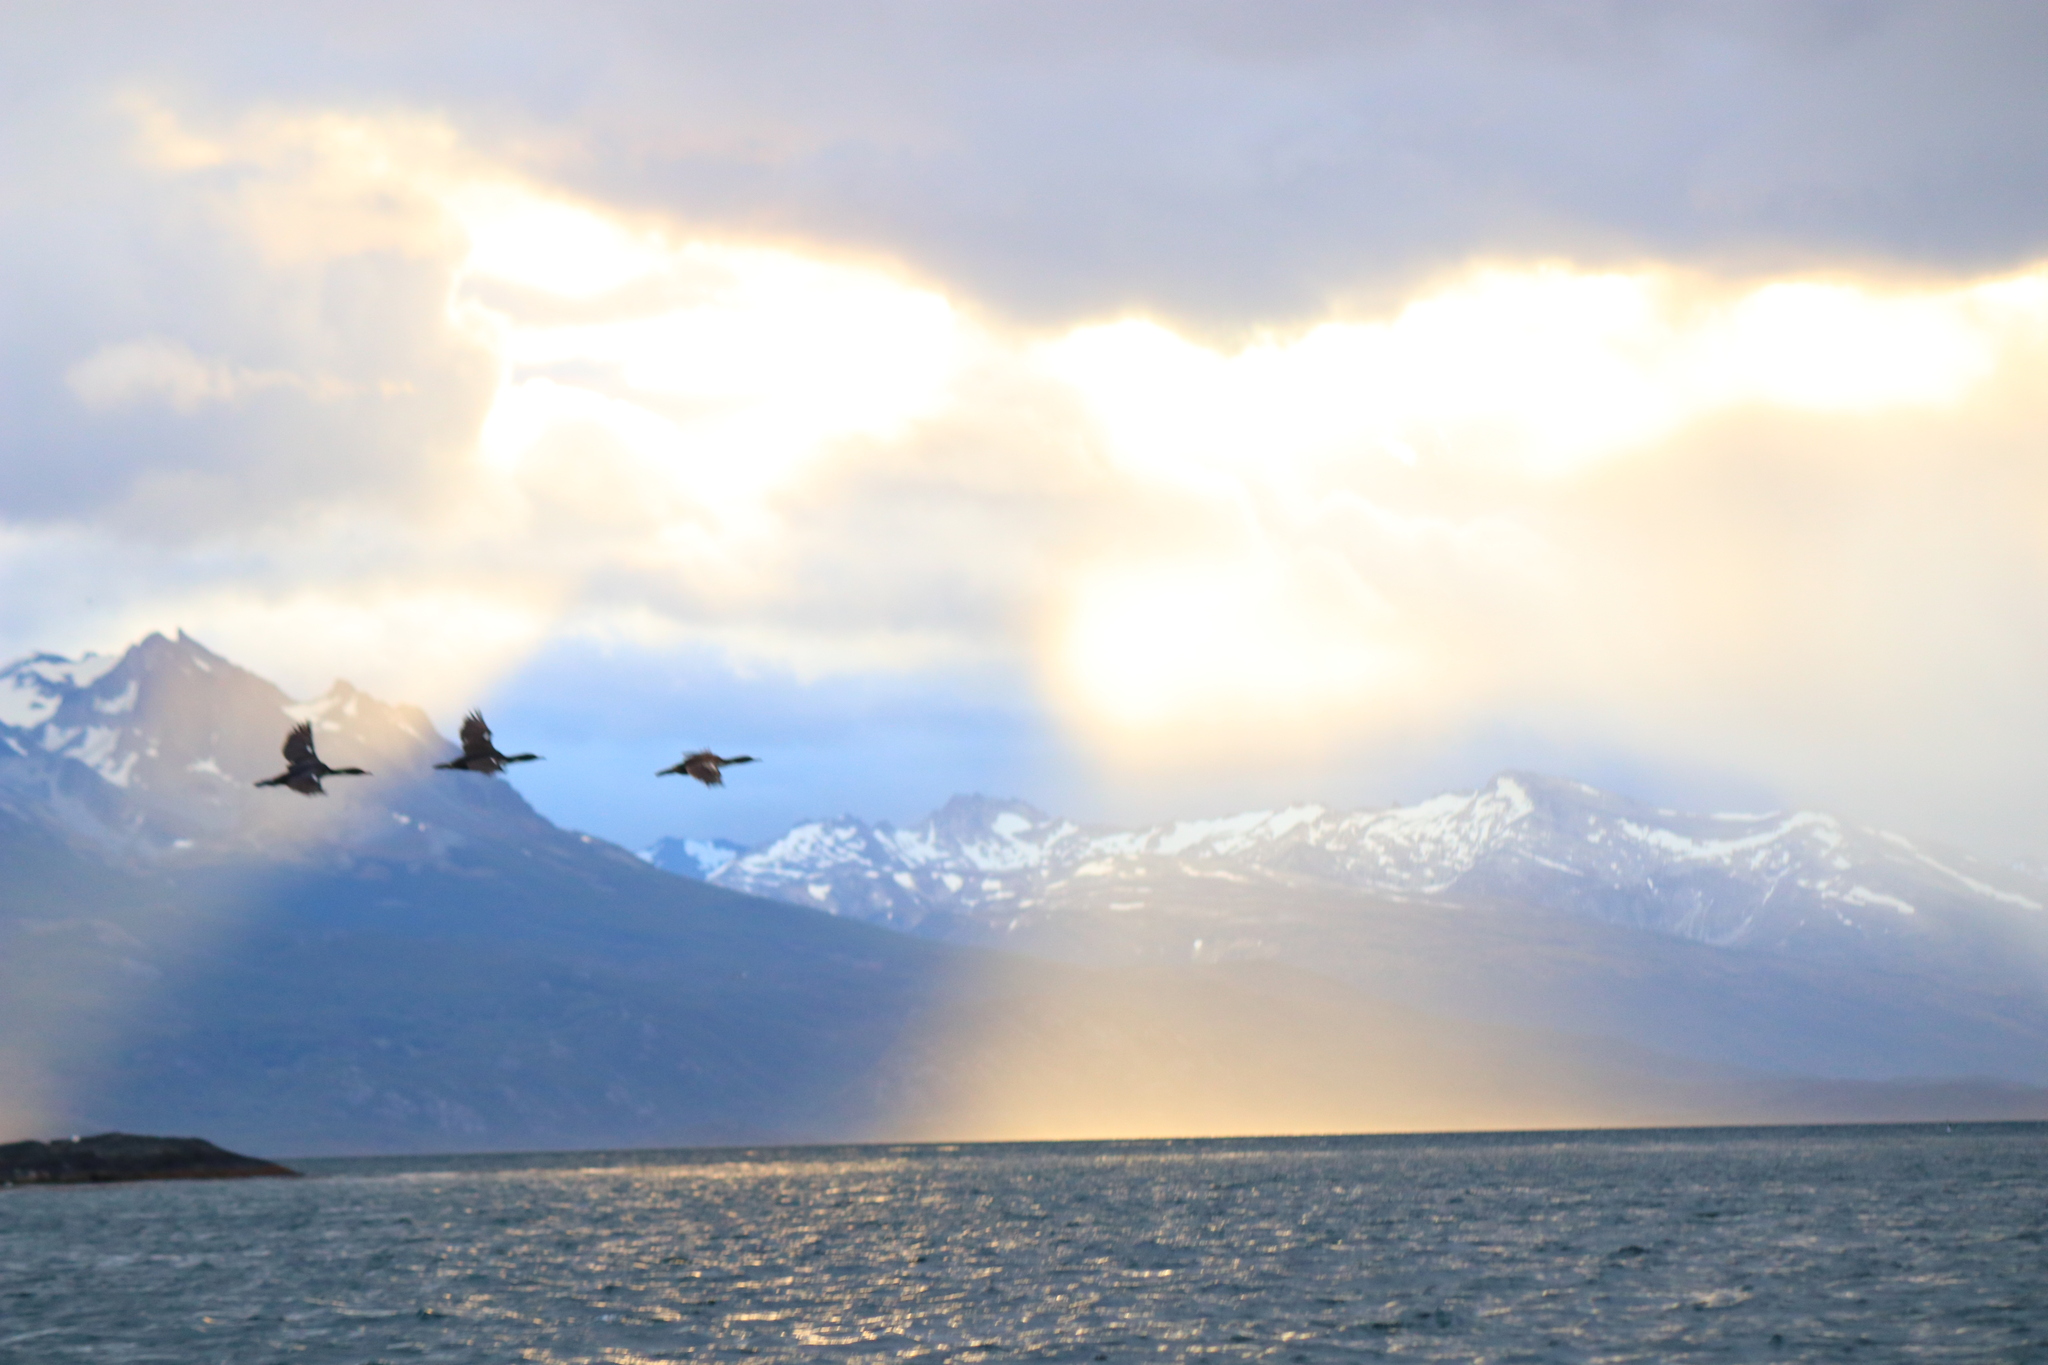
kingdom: Animalia
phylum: Chordata
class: Aves
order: Suliformes
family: Phalacrocoracidae
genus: Leucocarbo
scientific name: Leucocarbo atriceps
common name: Imperial shag
